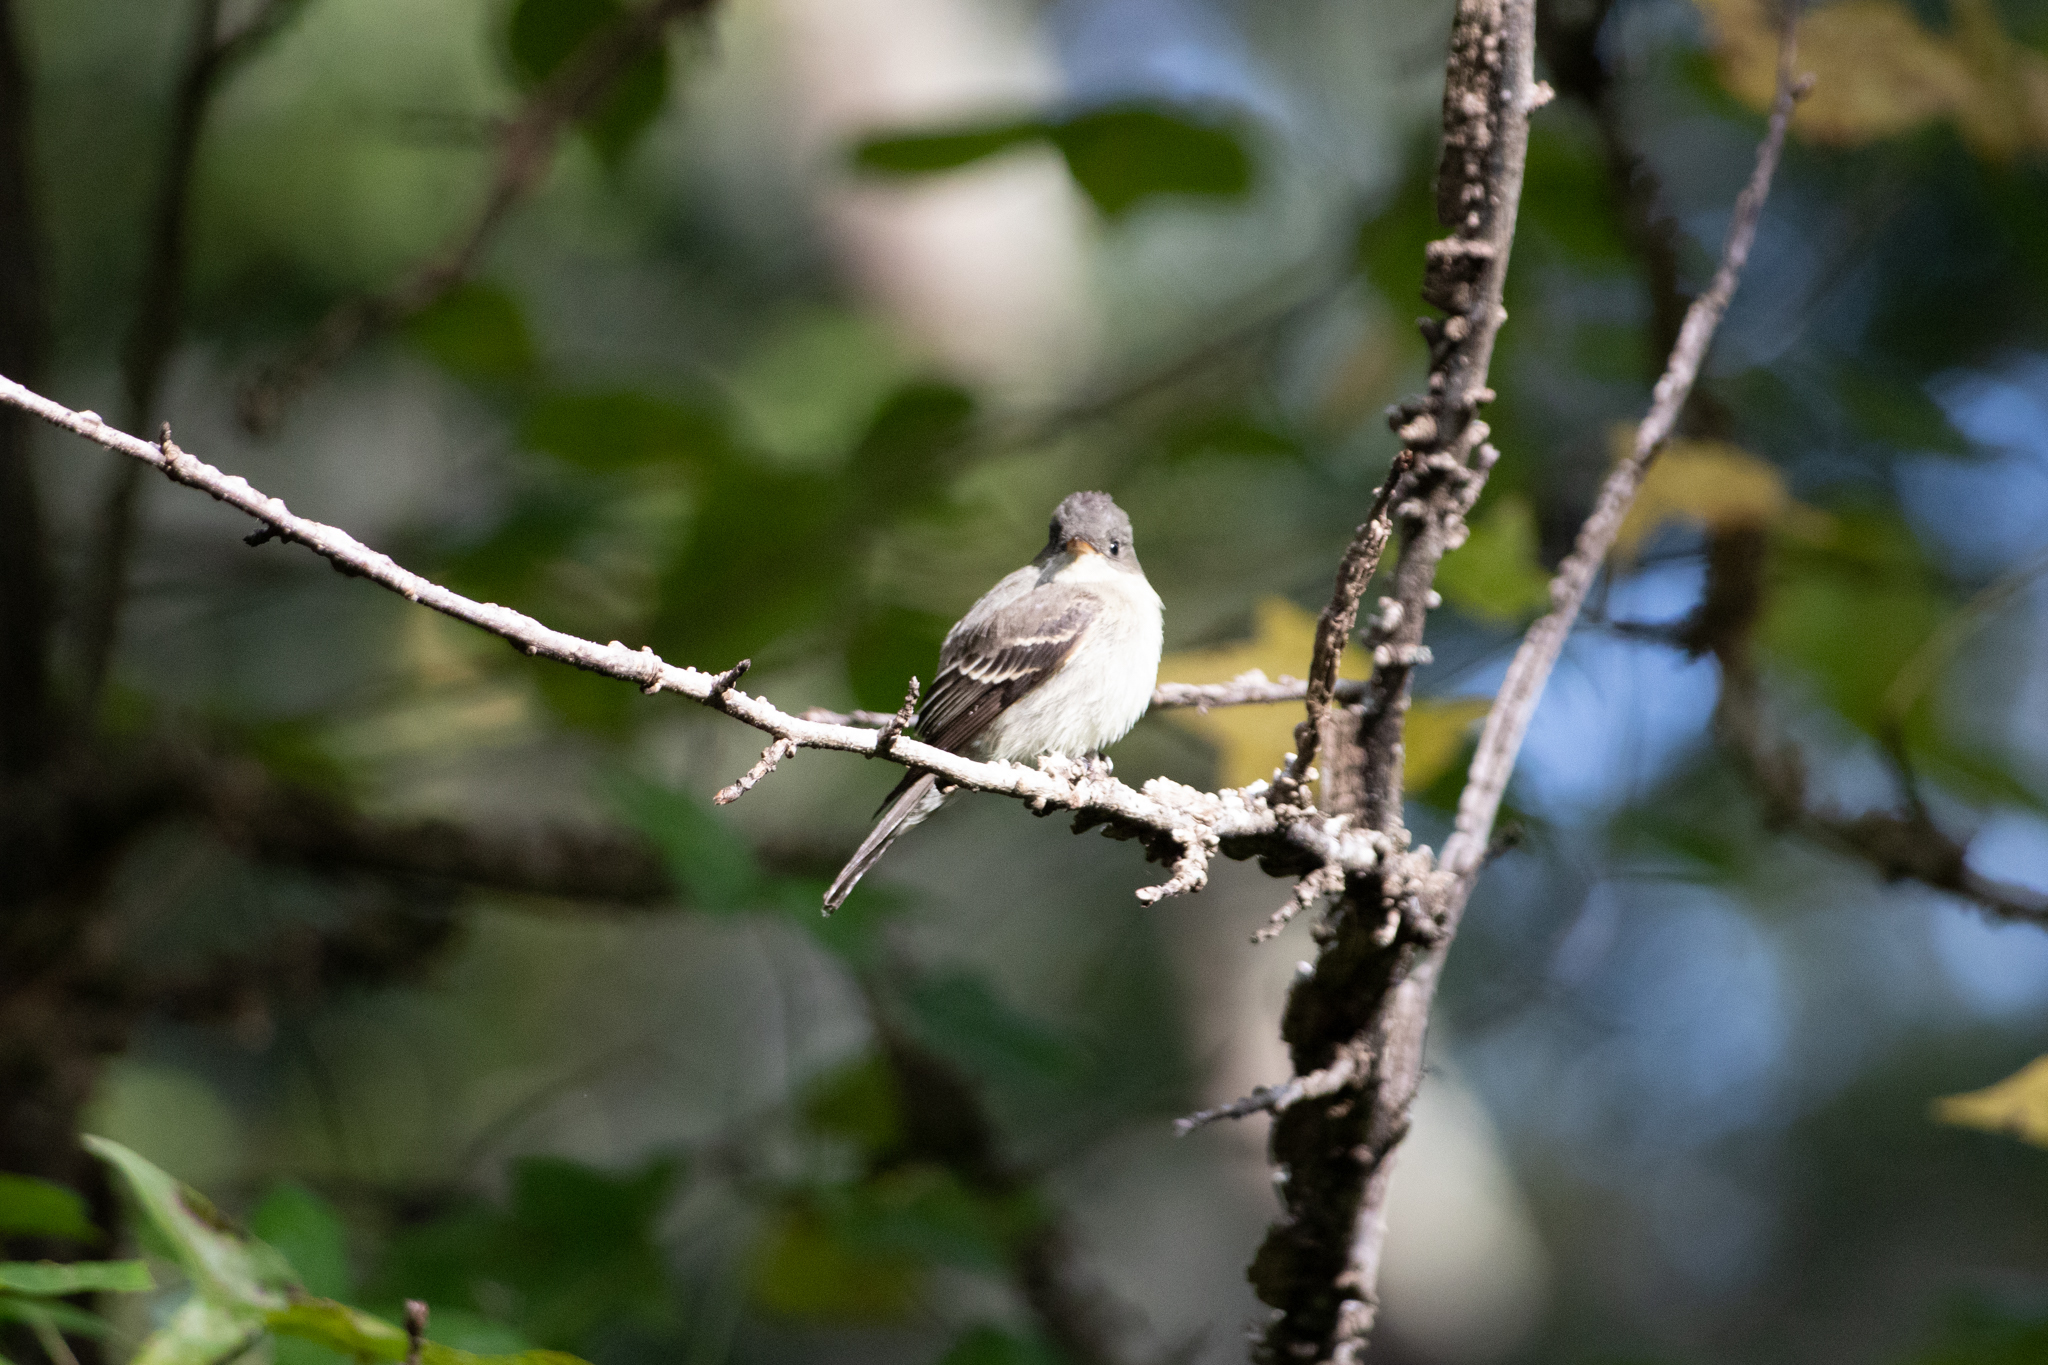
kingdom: Animalia
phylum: Chordata
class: Aves
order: Passeriformes
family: Tyrannidae
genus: Contopus
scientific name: Contopus virens
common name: Eastern wood-pewee
